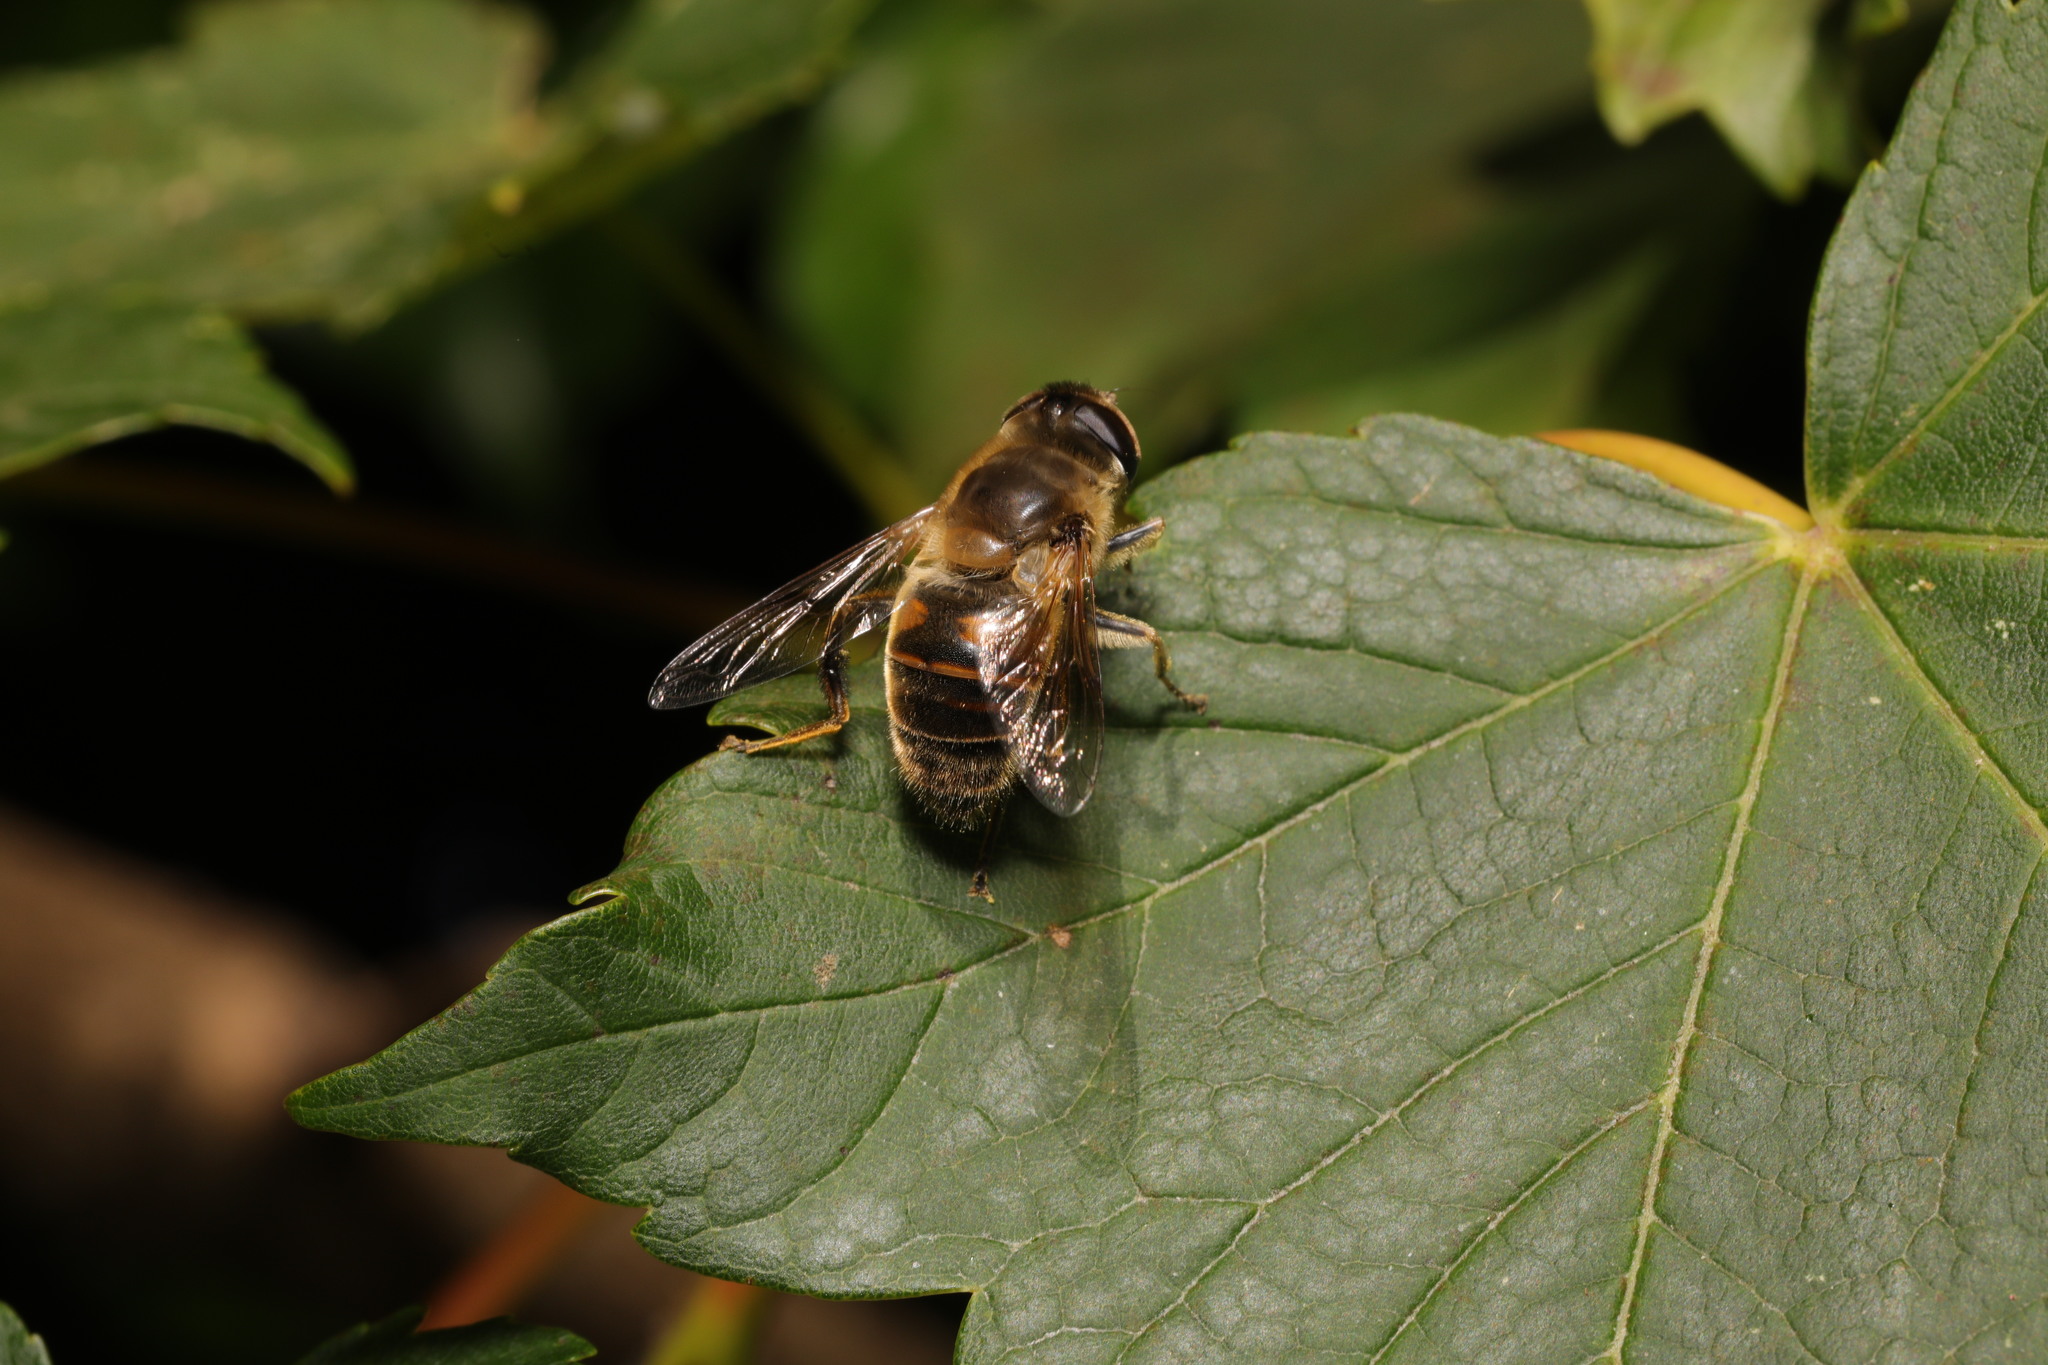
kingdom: Animalia
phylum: Arthropoda
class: Insecta
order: Diptera
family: Syrphidae
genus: Eristalis
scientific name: Eristalis tenax
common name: Drone fly
